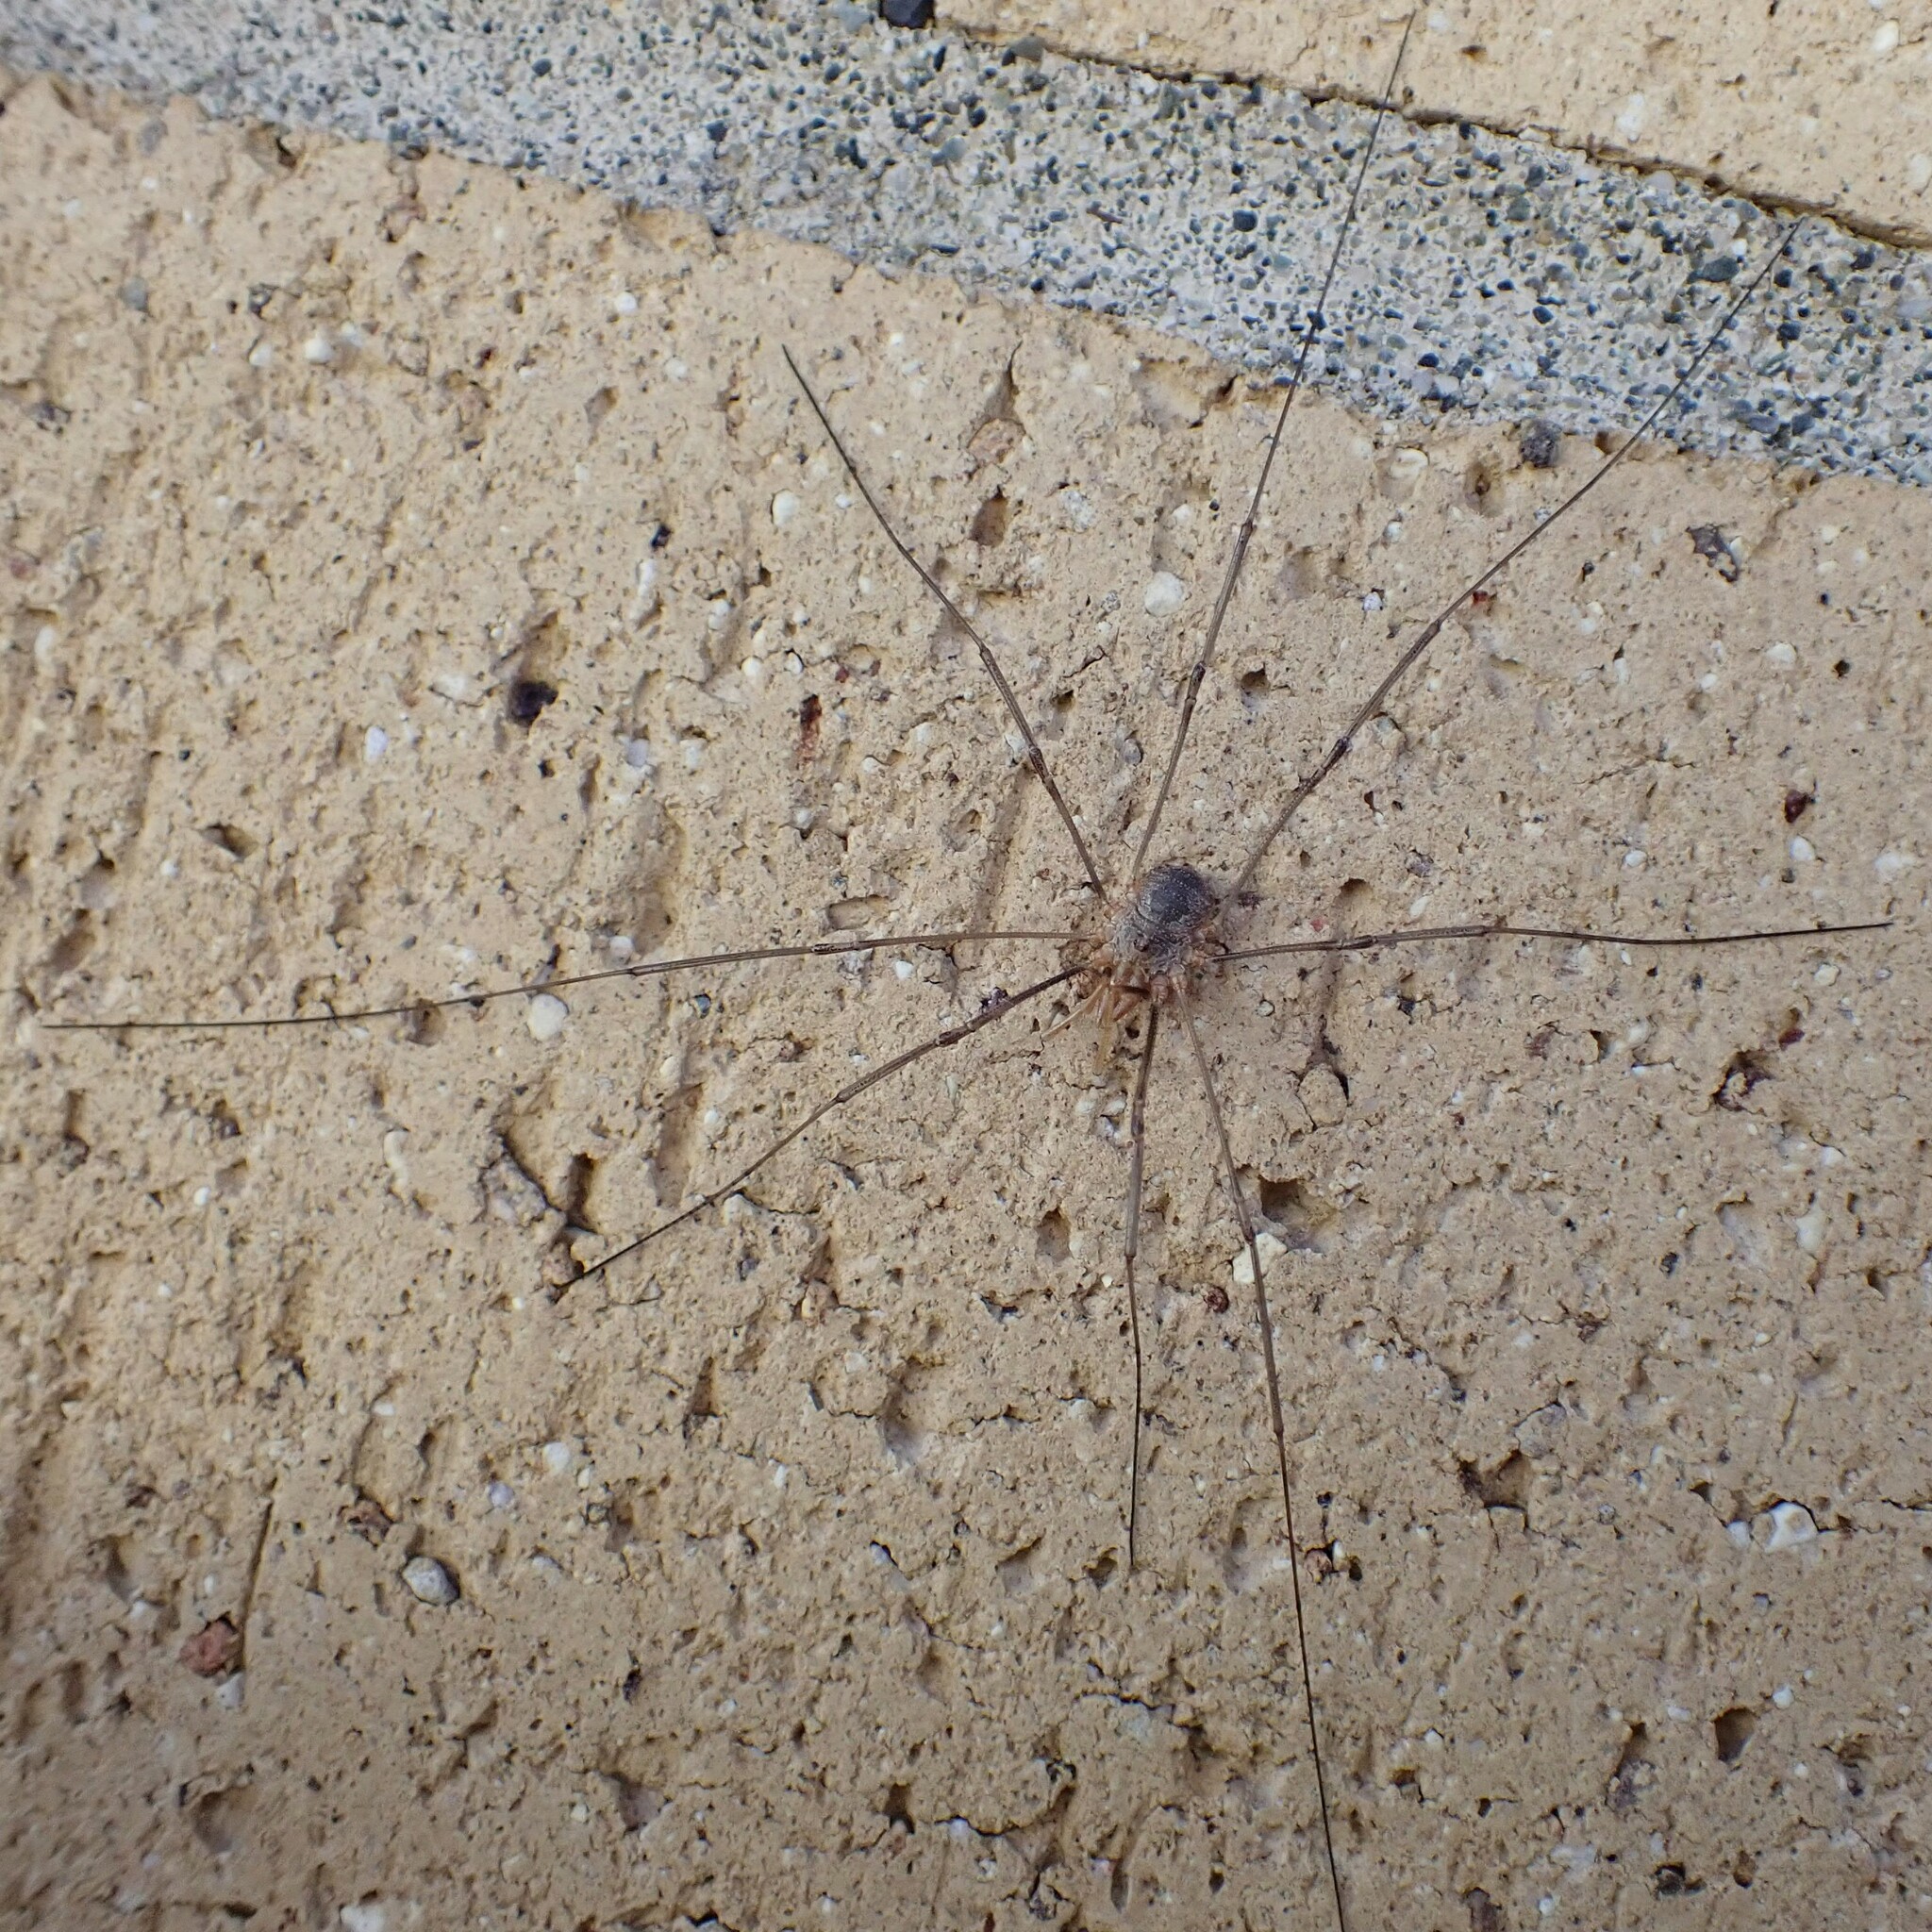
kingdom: Animalia
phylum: Arthropoda
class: Arachnida
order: Opiliones
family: Phalangiidae
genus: Phalangium
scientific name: Phalangium opilio
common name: Daddy longleg
